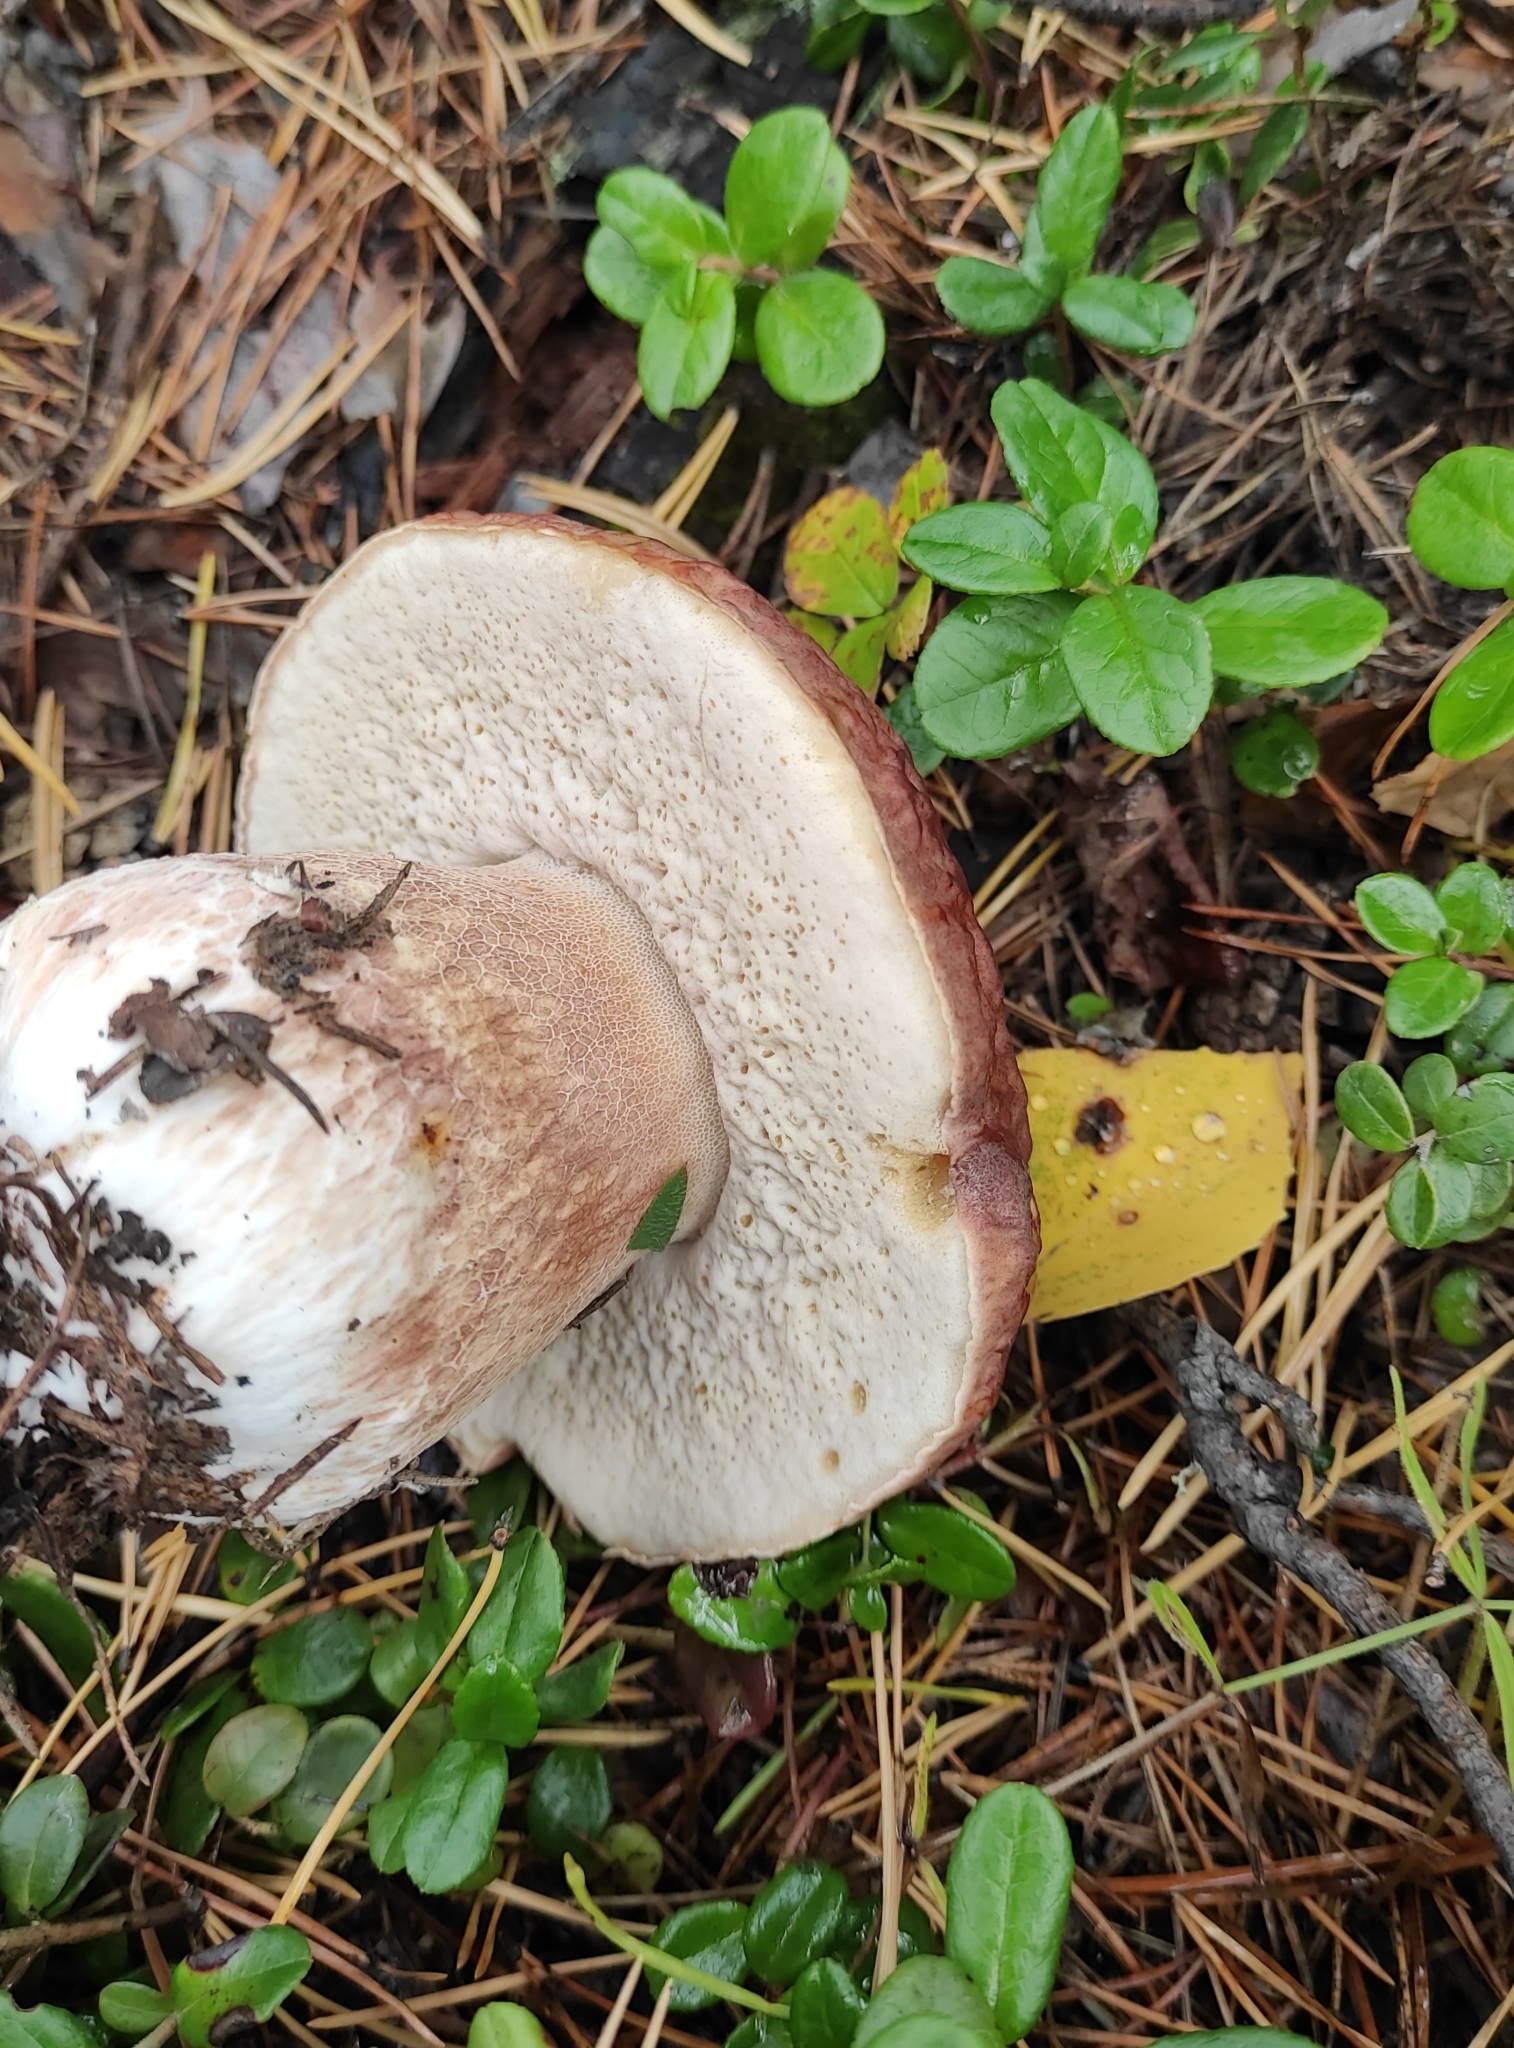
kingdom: Fungi
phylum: Basidiomycota
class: Agaricomycetes
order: Boletales
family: Boletaceae
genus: Boletus
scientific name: Boletus pinophilus
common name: Pine bolete
